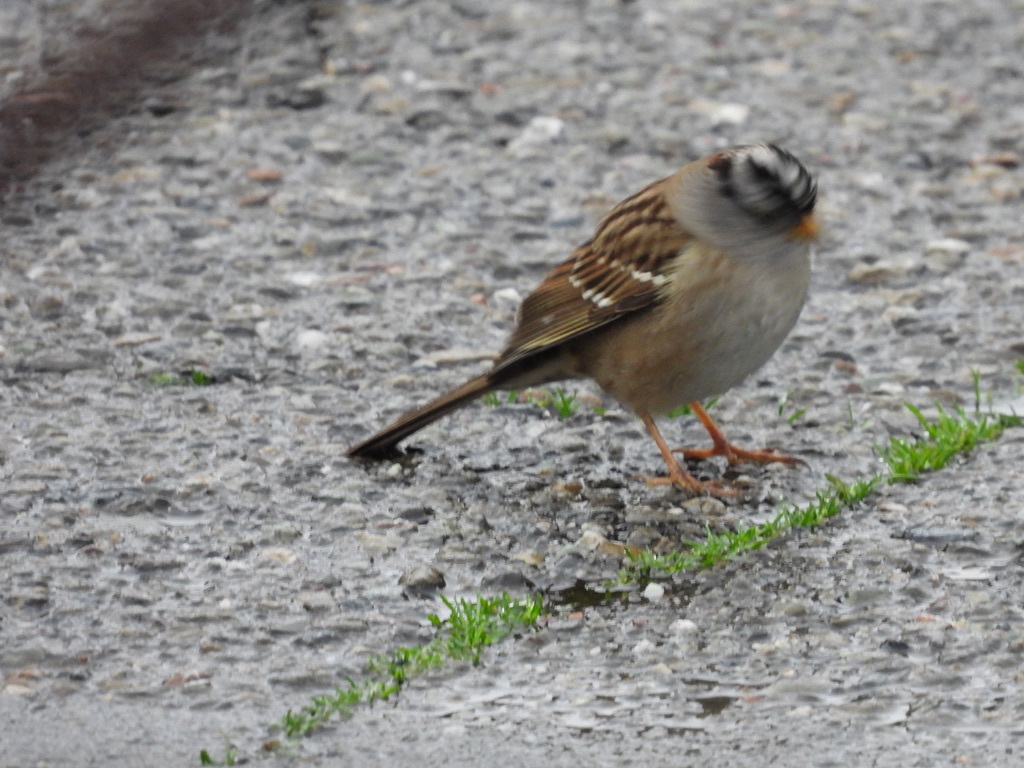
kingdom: Animalia
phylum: Chordata
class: Aves
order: Passeriformes
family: Passerellidae
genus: Zonotrichia
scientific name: Zonotrichia leucophrys
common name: White-crowned sparrow
